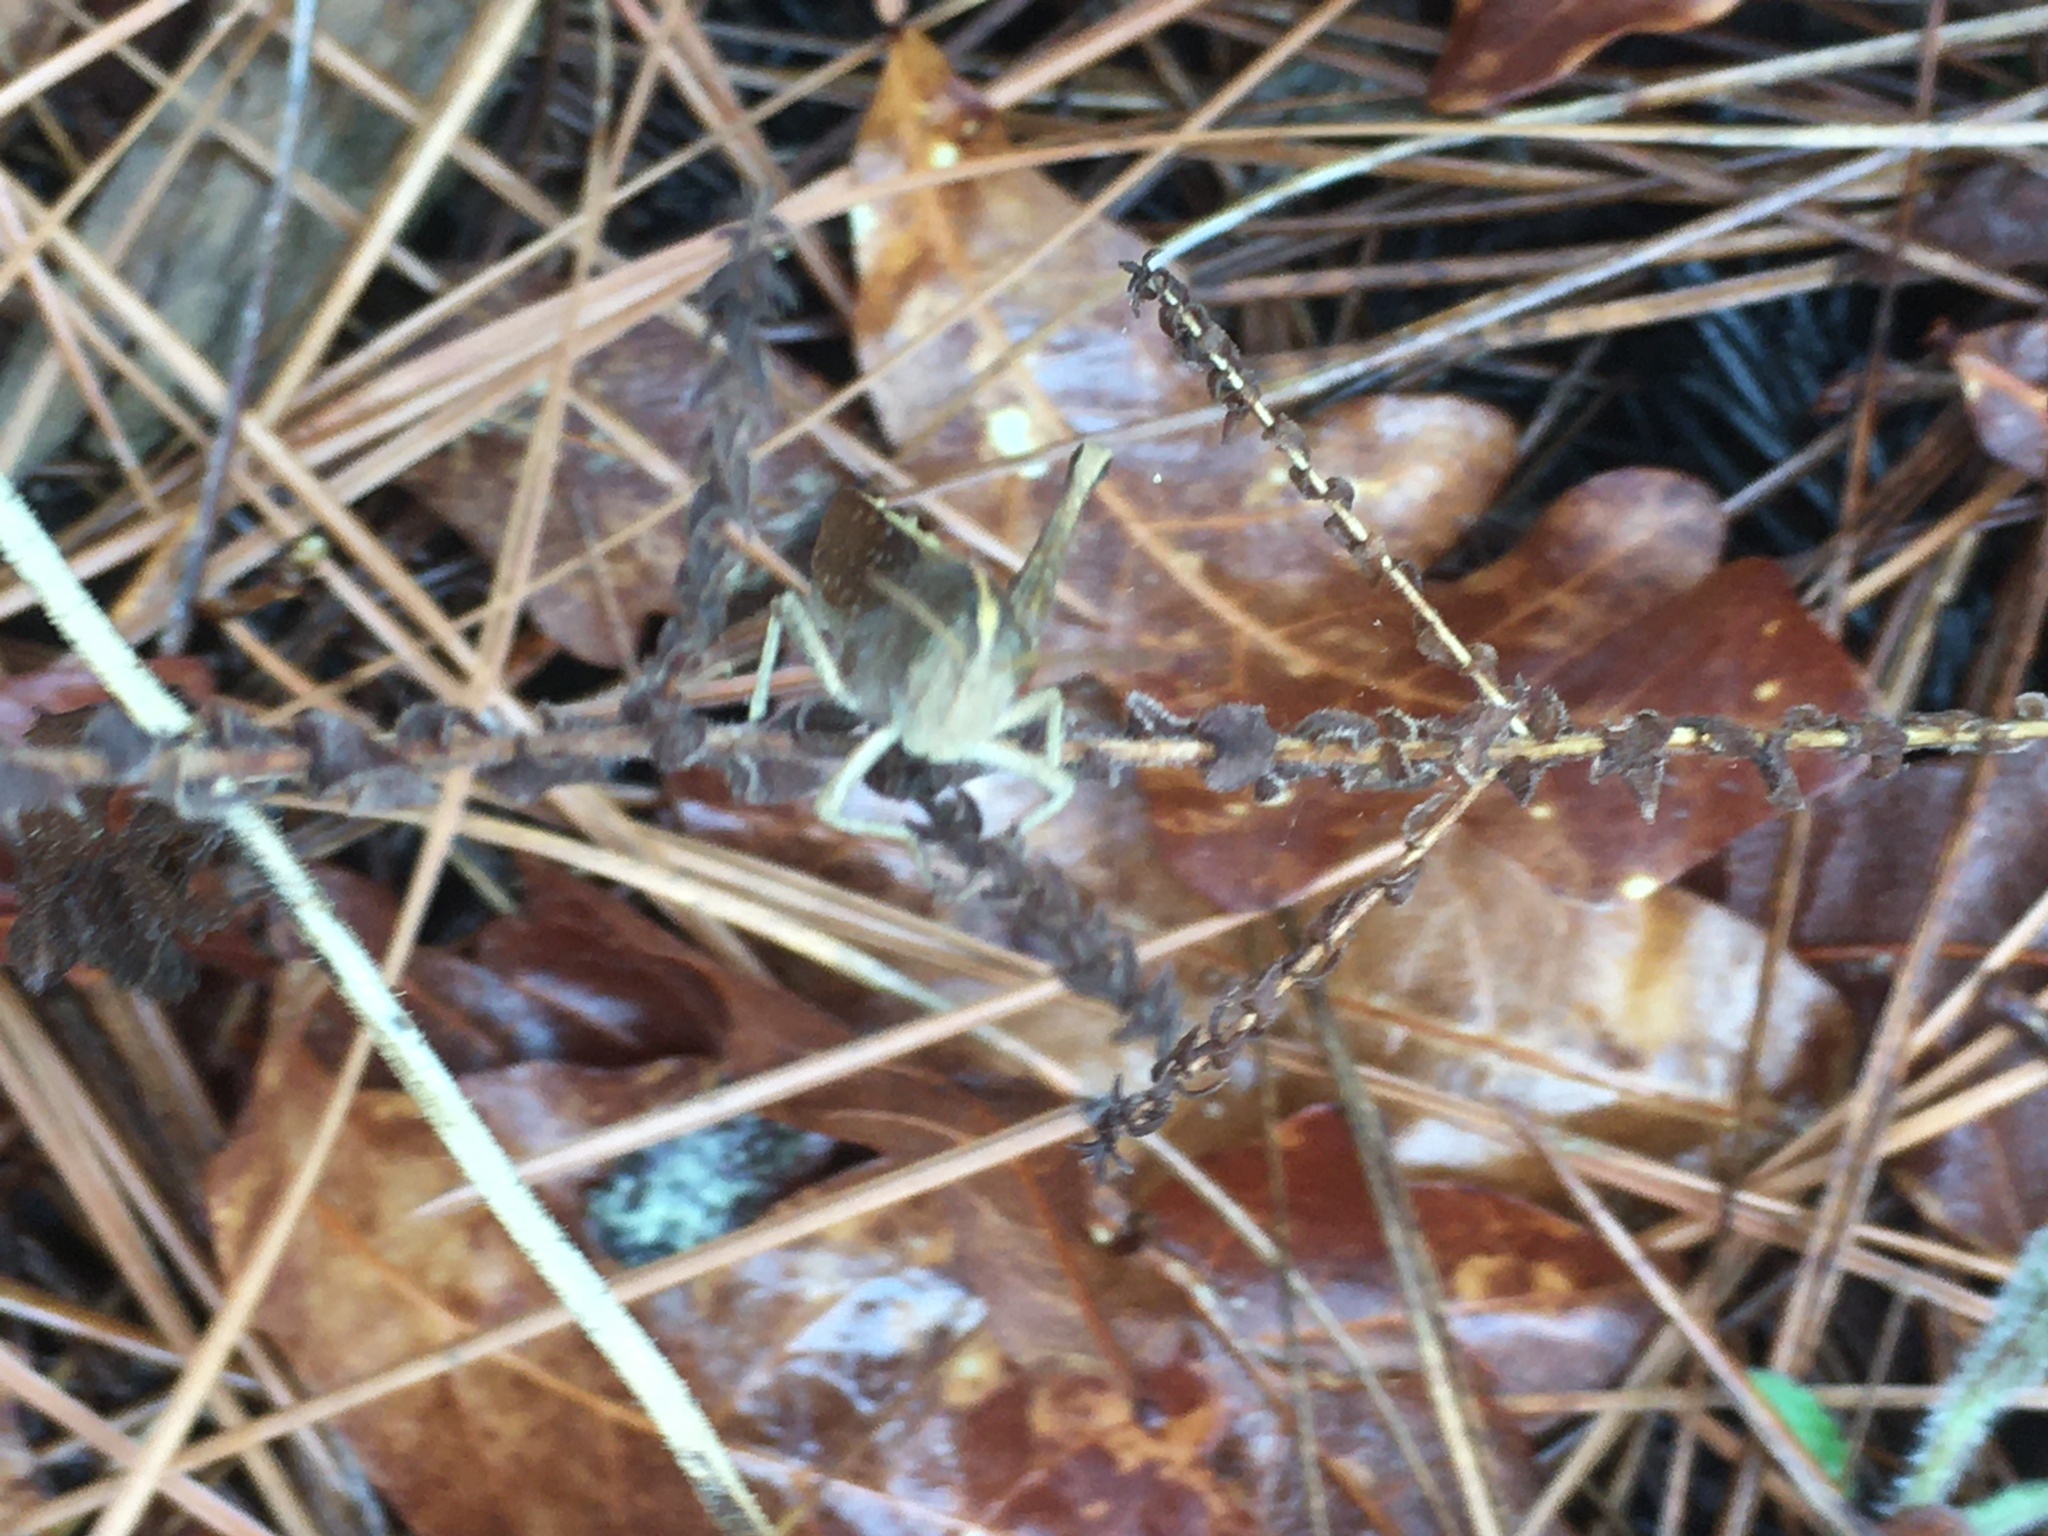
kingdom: Animalia
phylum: Arthropoda
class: Insecta
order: Orthoptera
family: Acrididae
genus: Schistocerca
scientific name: Schistocerca damnifica
